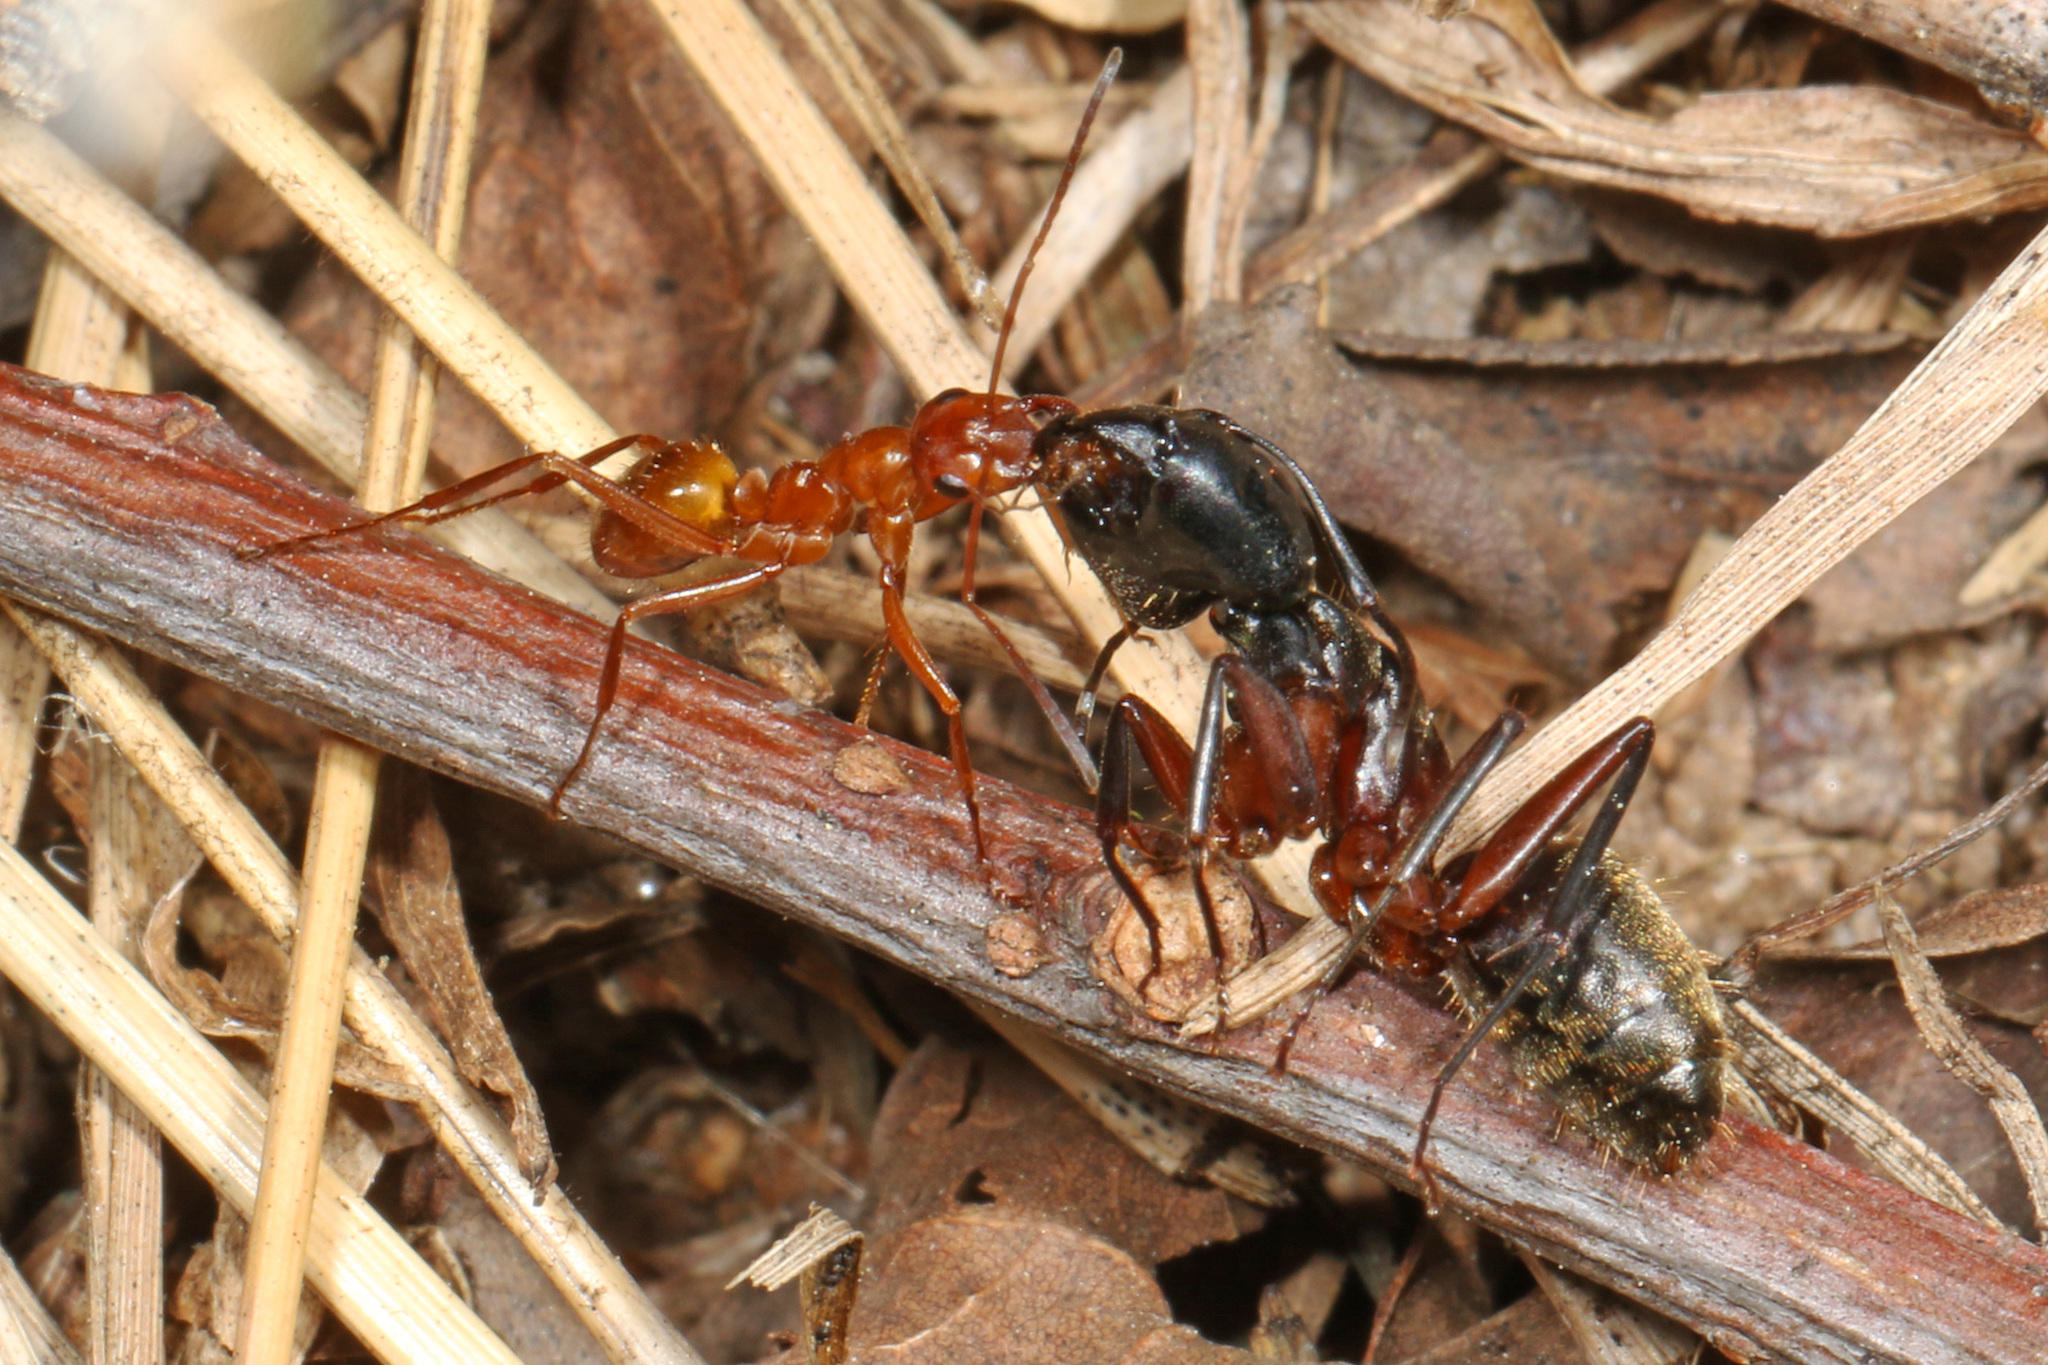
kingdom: Animalia
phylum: Arthropoda
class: Insecta
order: Hymenoptera
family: Formicidae
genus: Camponotus
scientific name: Camponotus chromaiodes
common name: Red carpenter ant
